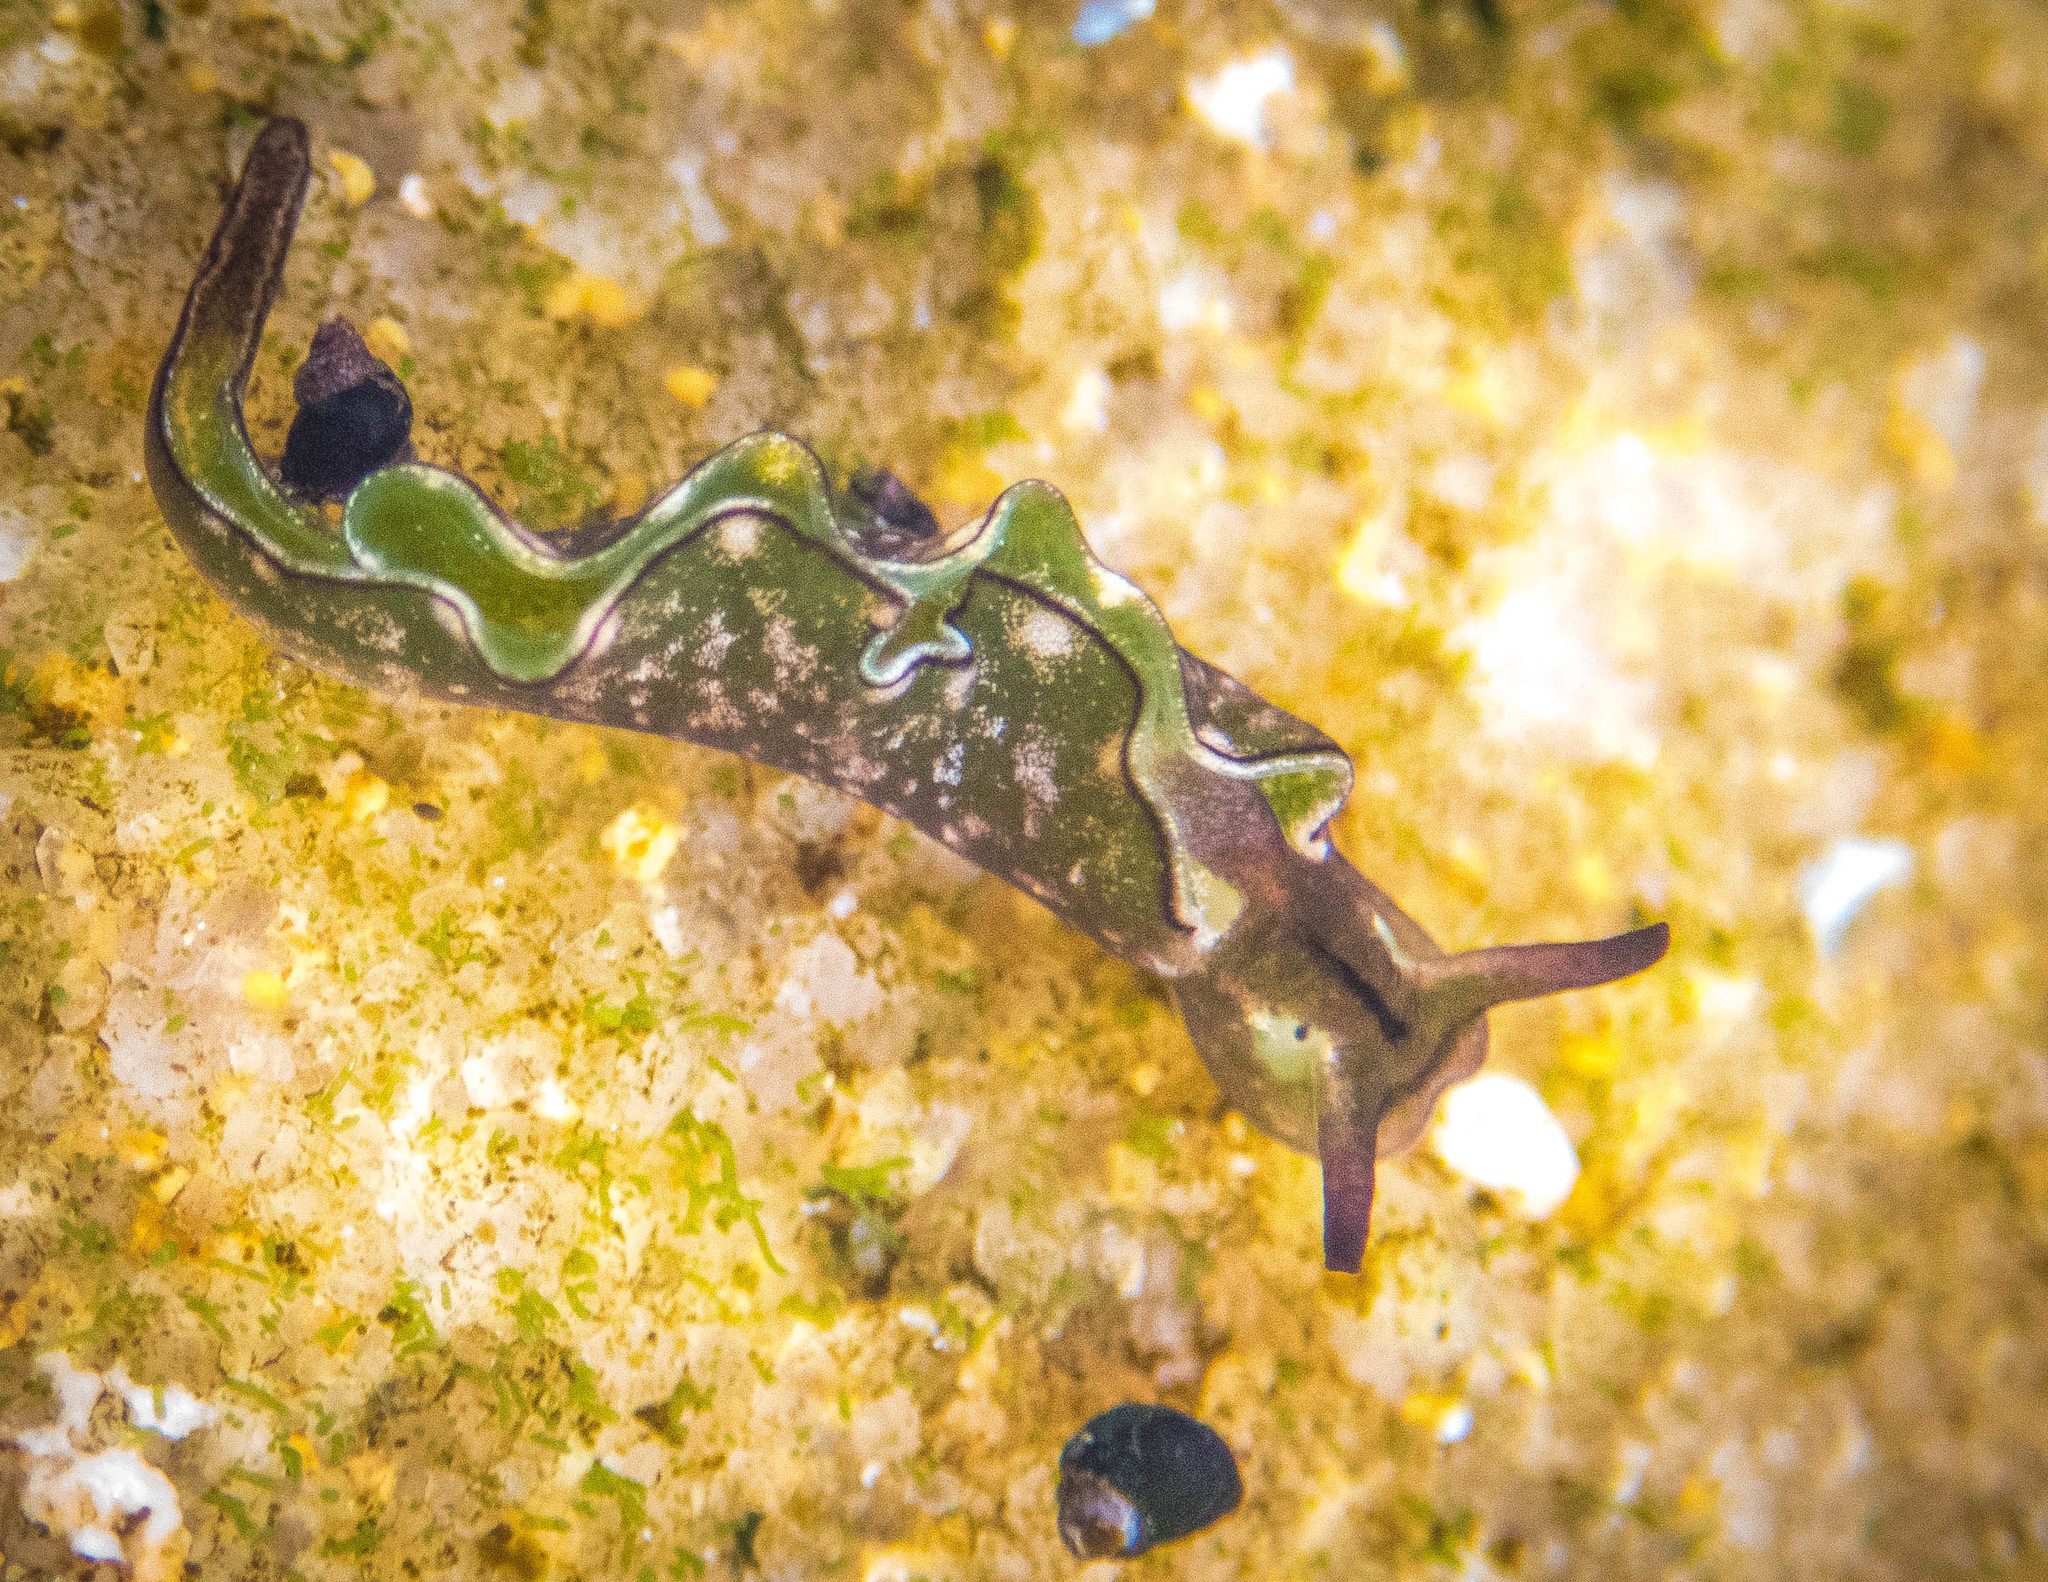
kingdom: Animalia
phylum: Mollusca
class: Gastropoda
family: Plakobranchidae
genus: Elysia
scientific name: Elysia coodgeensis
